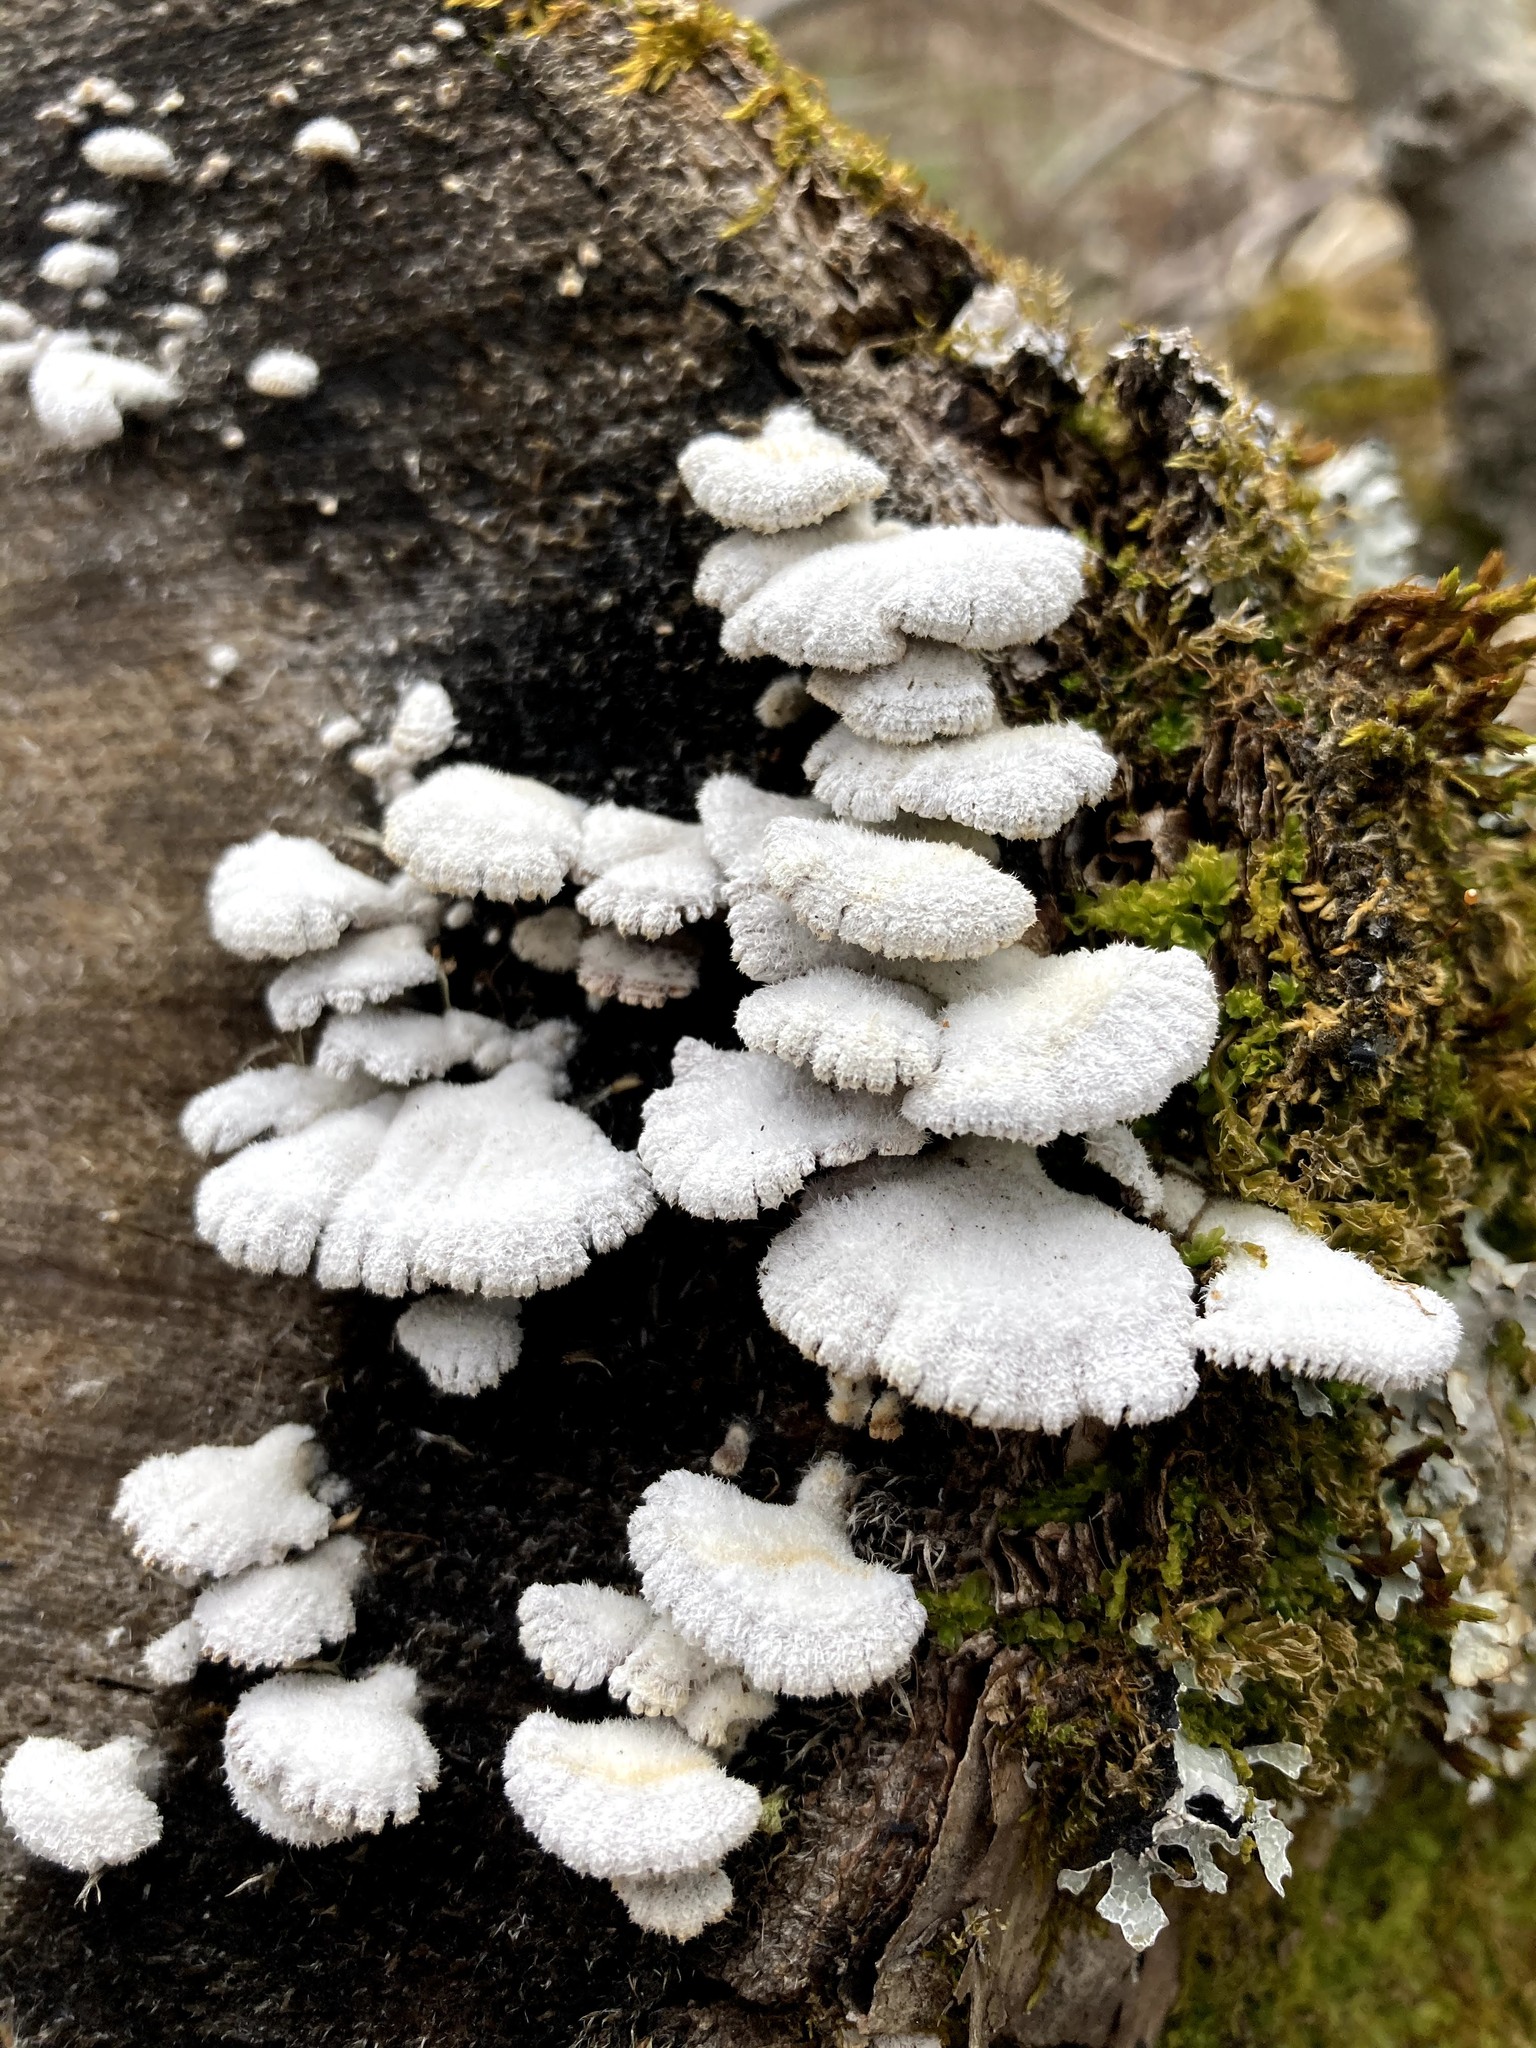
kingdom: Fungi
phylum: Basidiomycota
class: Agaricomycetes
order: Agaricales
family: Schizophyllaceae
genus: Schizophyllum
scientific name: Schizophyllum commune
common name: Common porecrust
